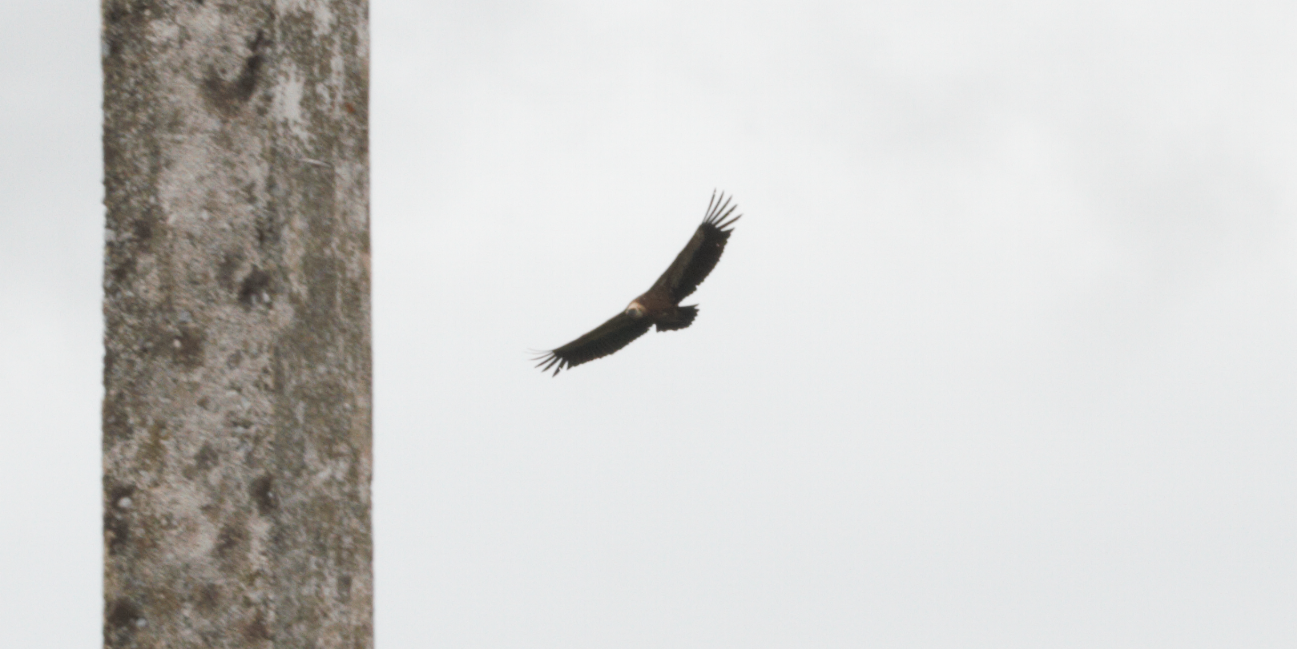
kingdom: Animalia
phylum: Chordata
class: Aves
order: Accipitriformes
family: Accipitridae
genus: Gyps
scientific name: Gyps fulvus
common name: Griffon vulture
